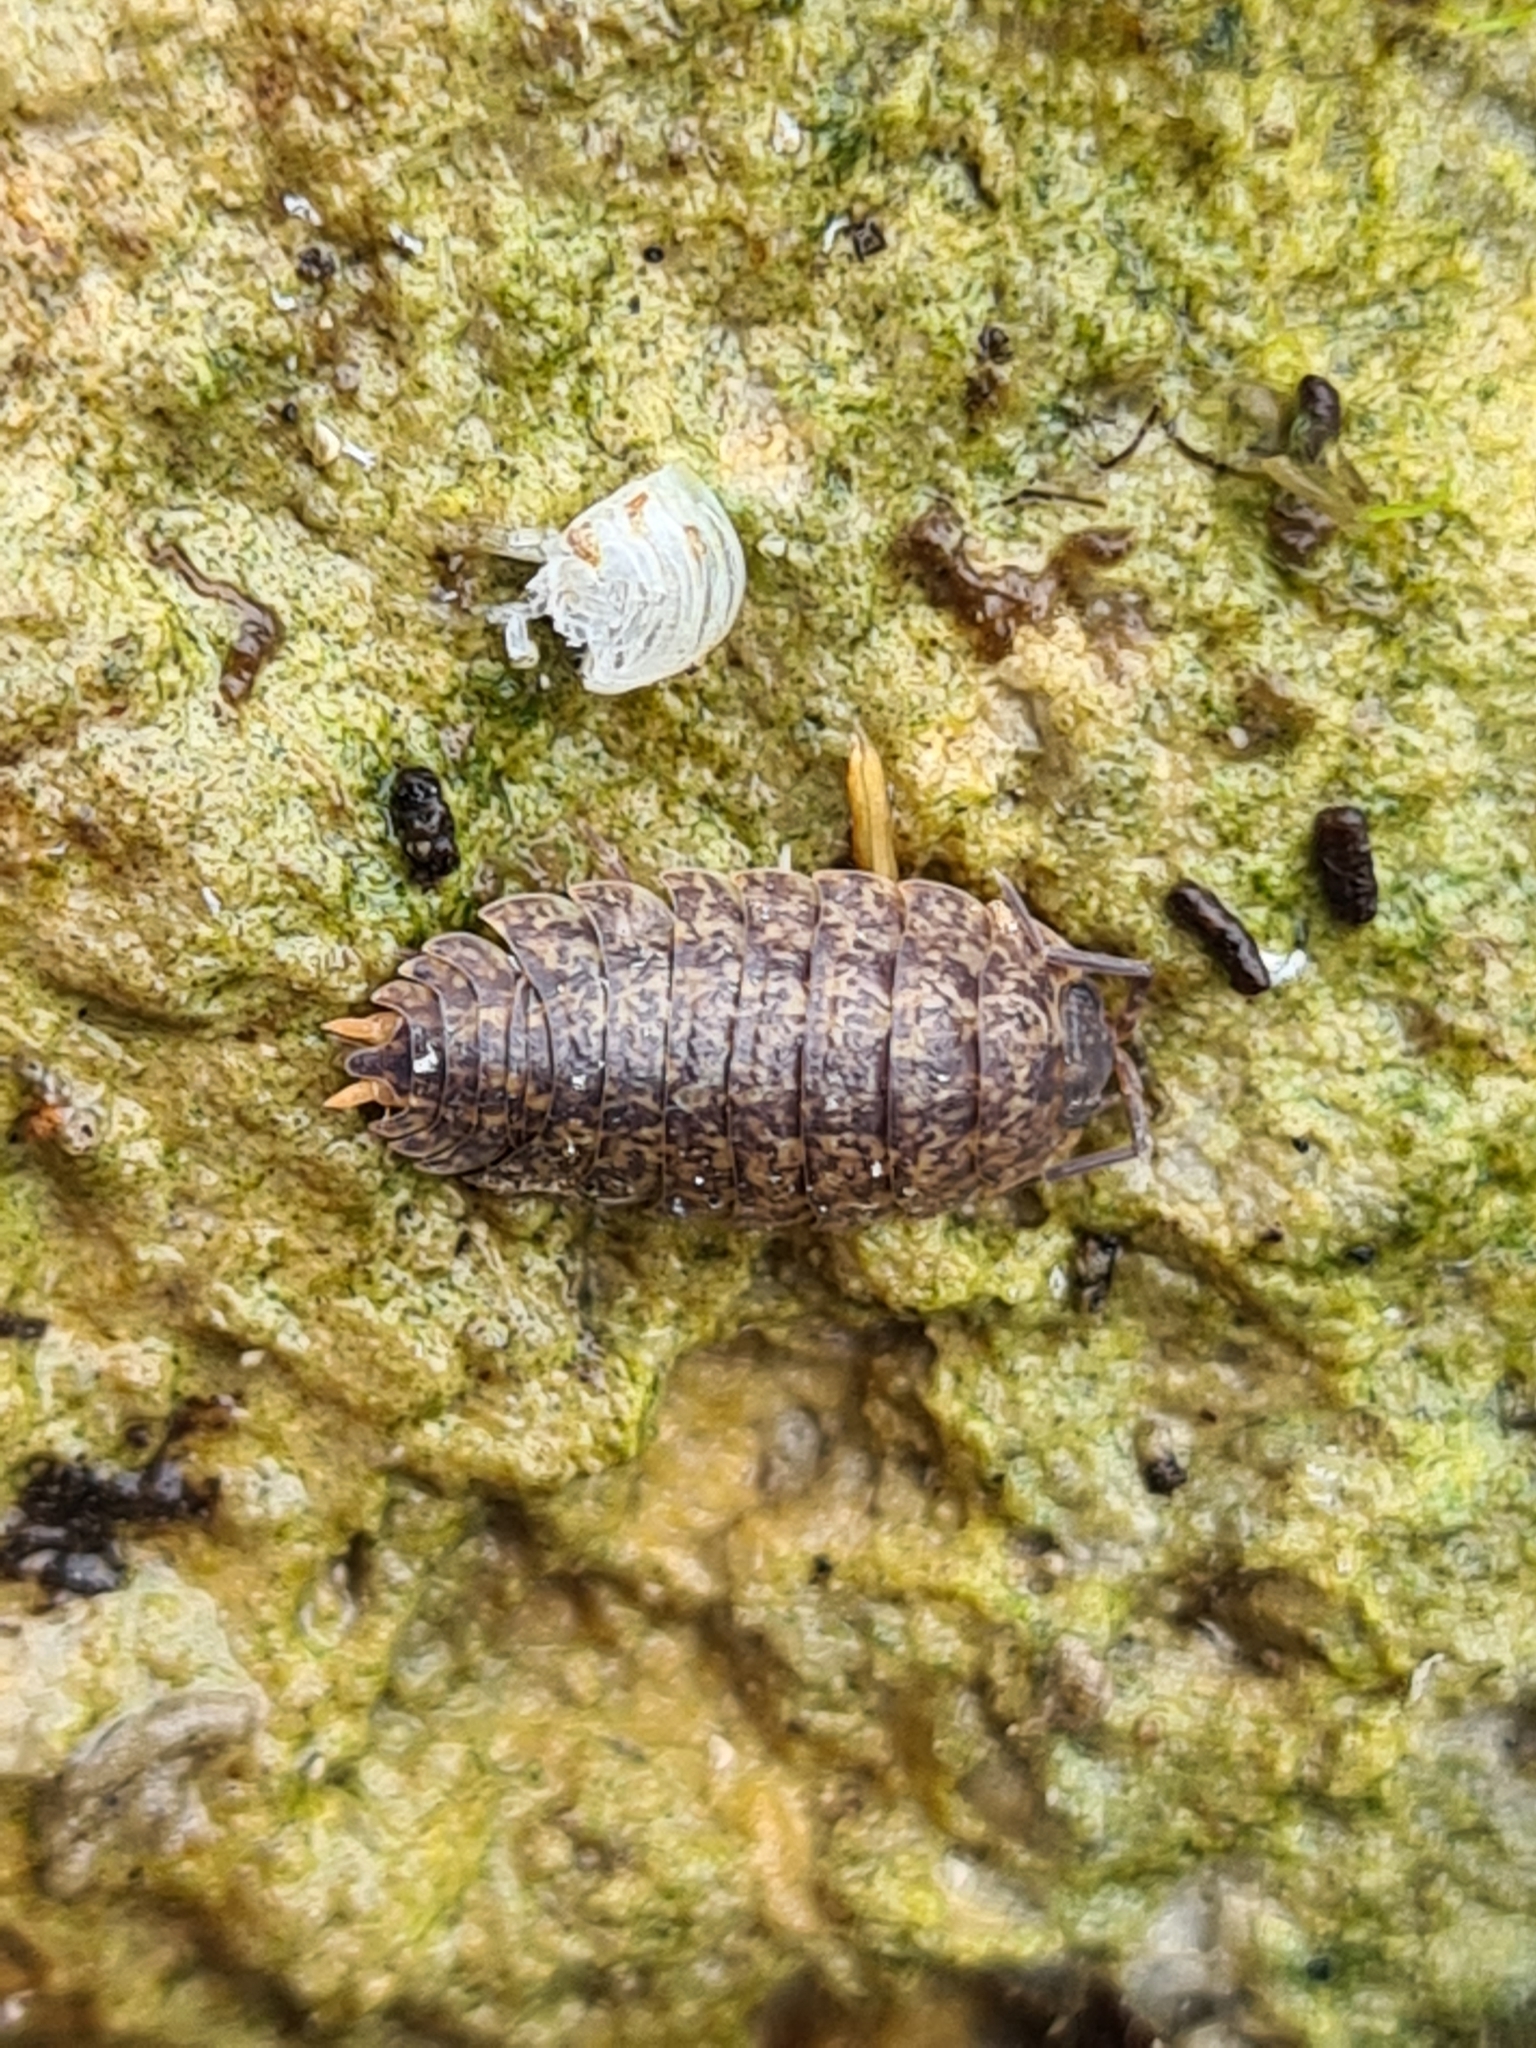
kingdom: Animalia
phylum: Arthropoda
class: Malacostraca
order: Isopoda
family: Trachelipodidae
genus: Porcellium
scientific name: Porcellium collicola
